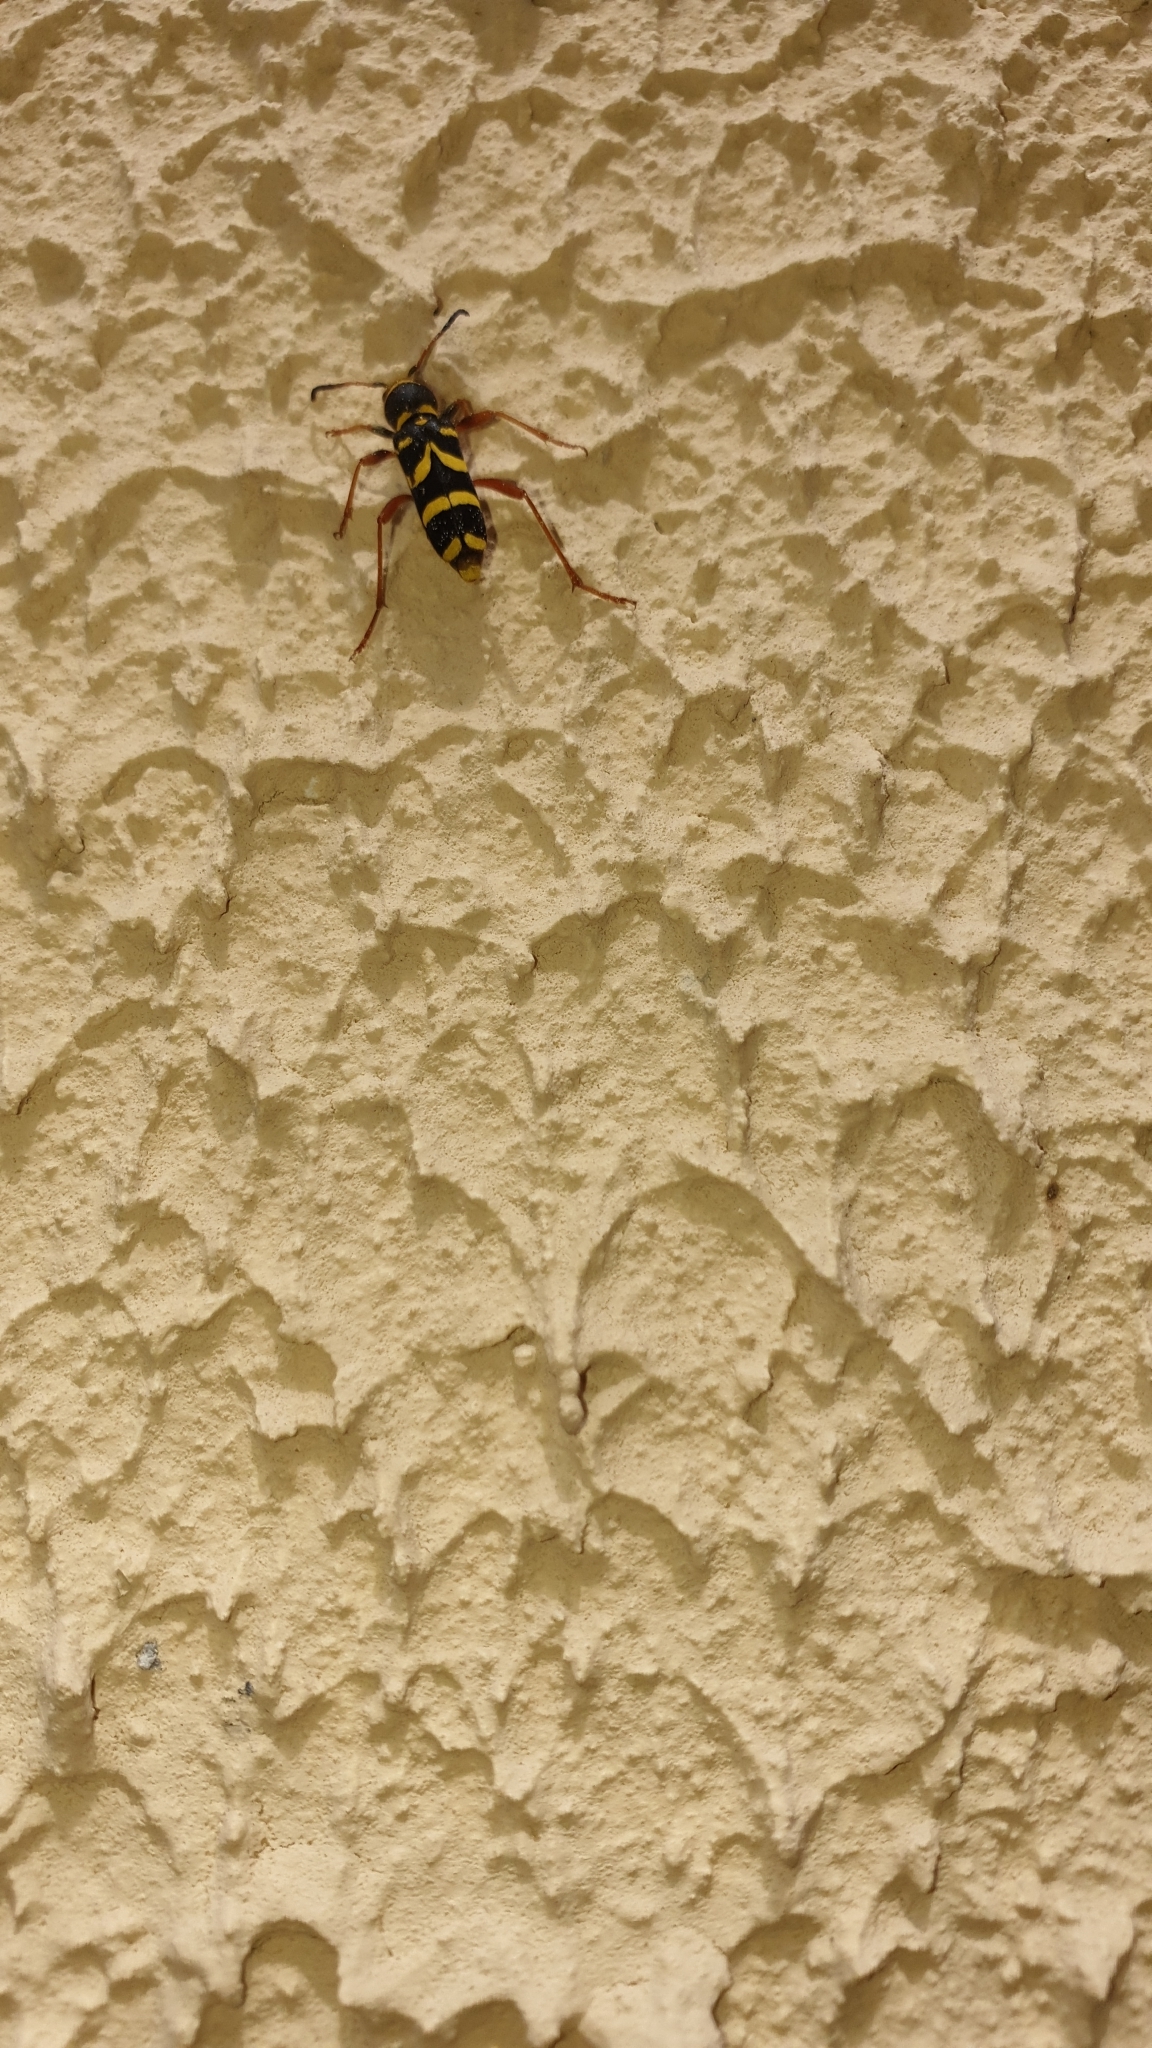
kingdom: Animalia
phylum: Arthropoda
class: Insecta
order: Coleoptera
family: Cerambycidae
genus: Clytus
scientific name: Clytus arietis
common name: Wasp beetle
